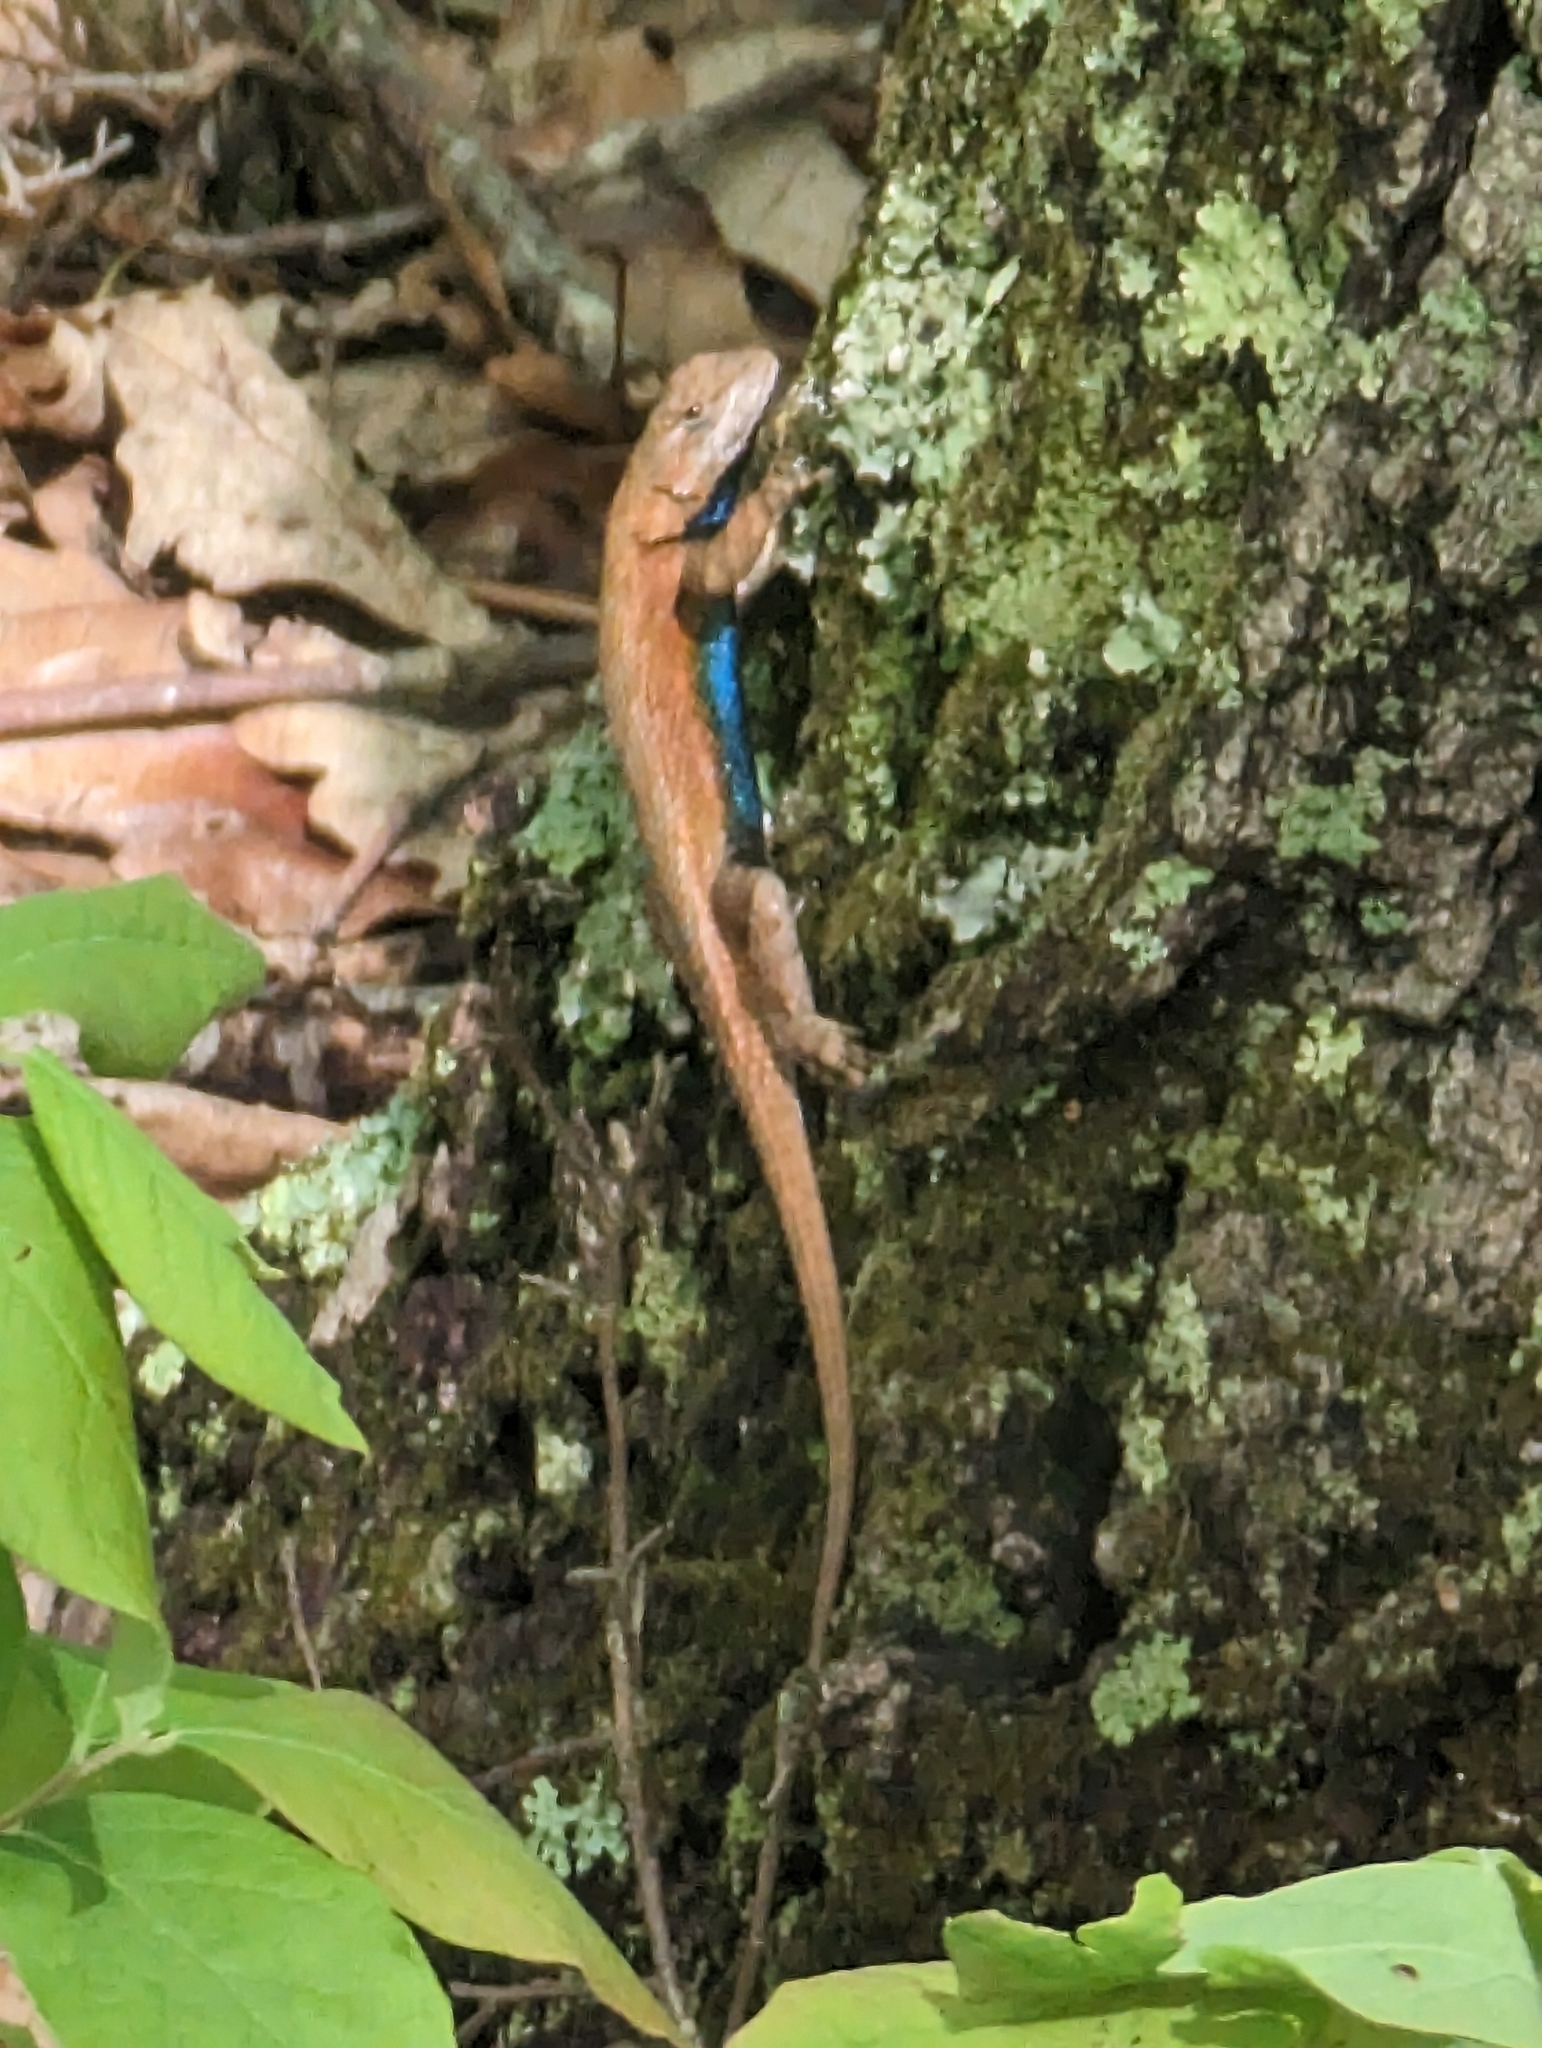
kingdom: Animalia
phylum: Chordata
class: Squamata
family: Phrynosomatidae
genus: Sceloporus
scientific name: Sceloporus undulatus
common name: Eastern fence lizard
